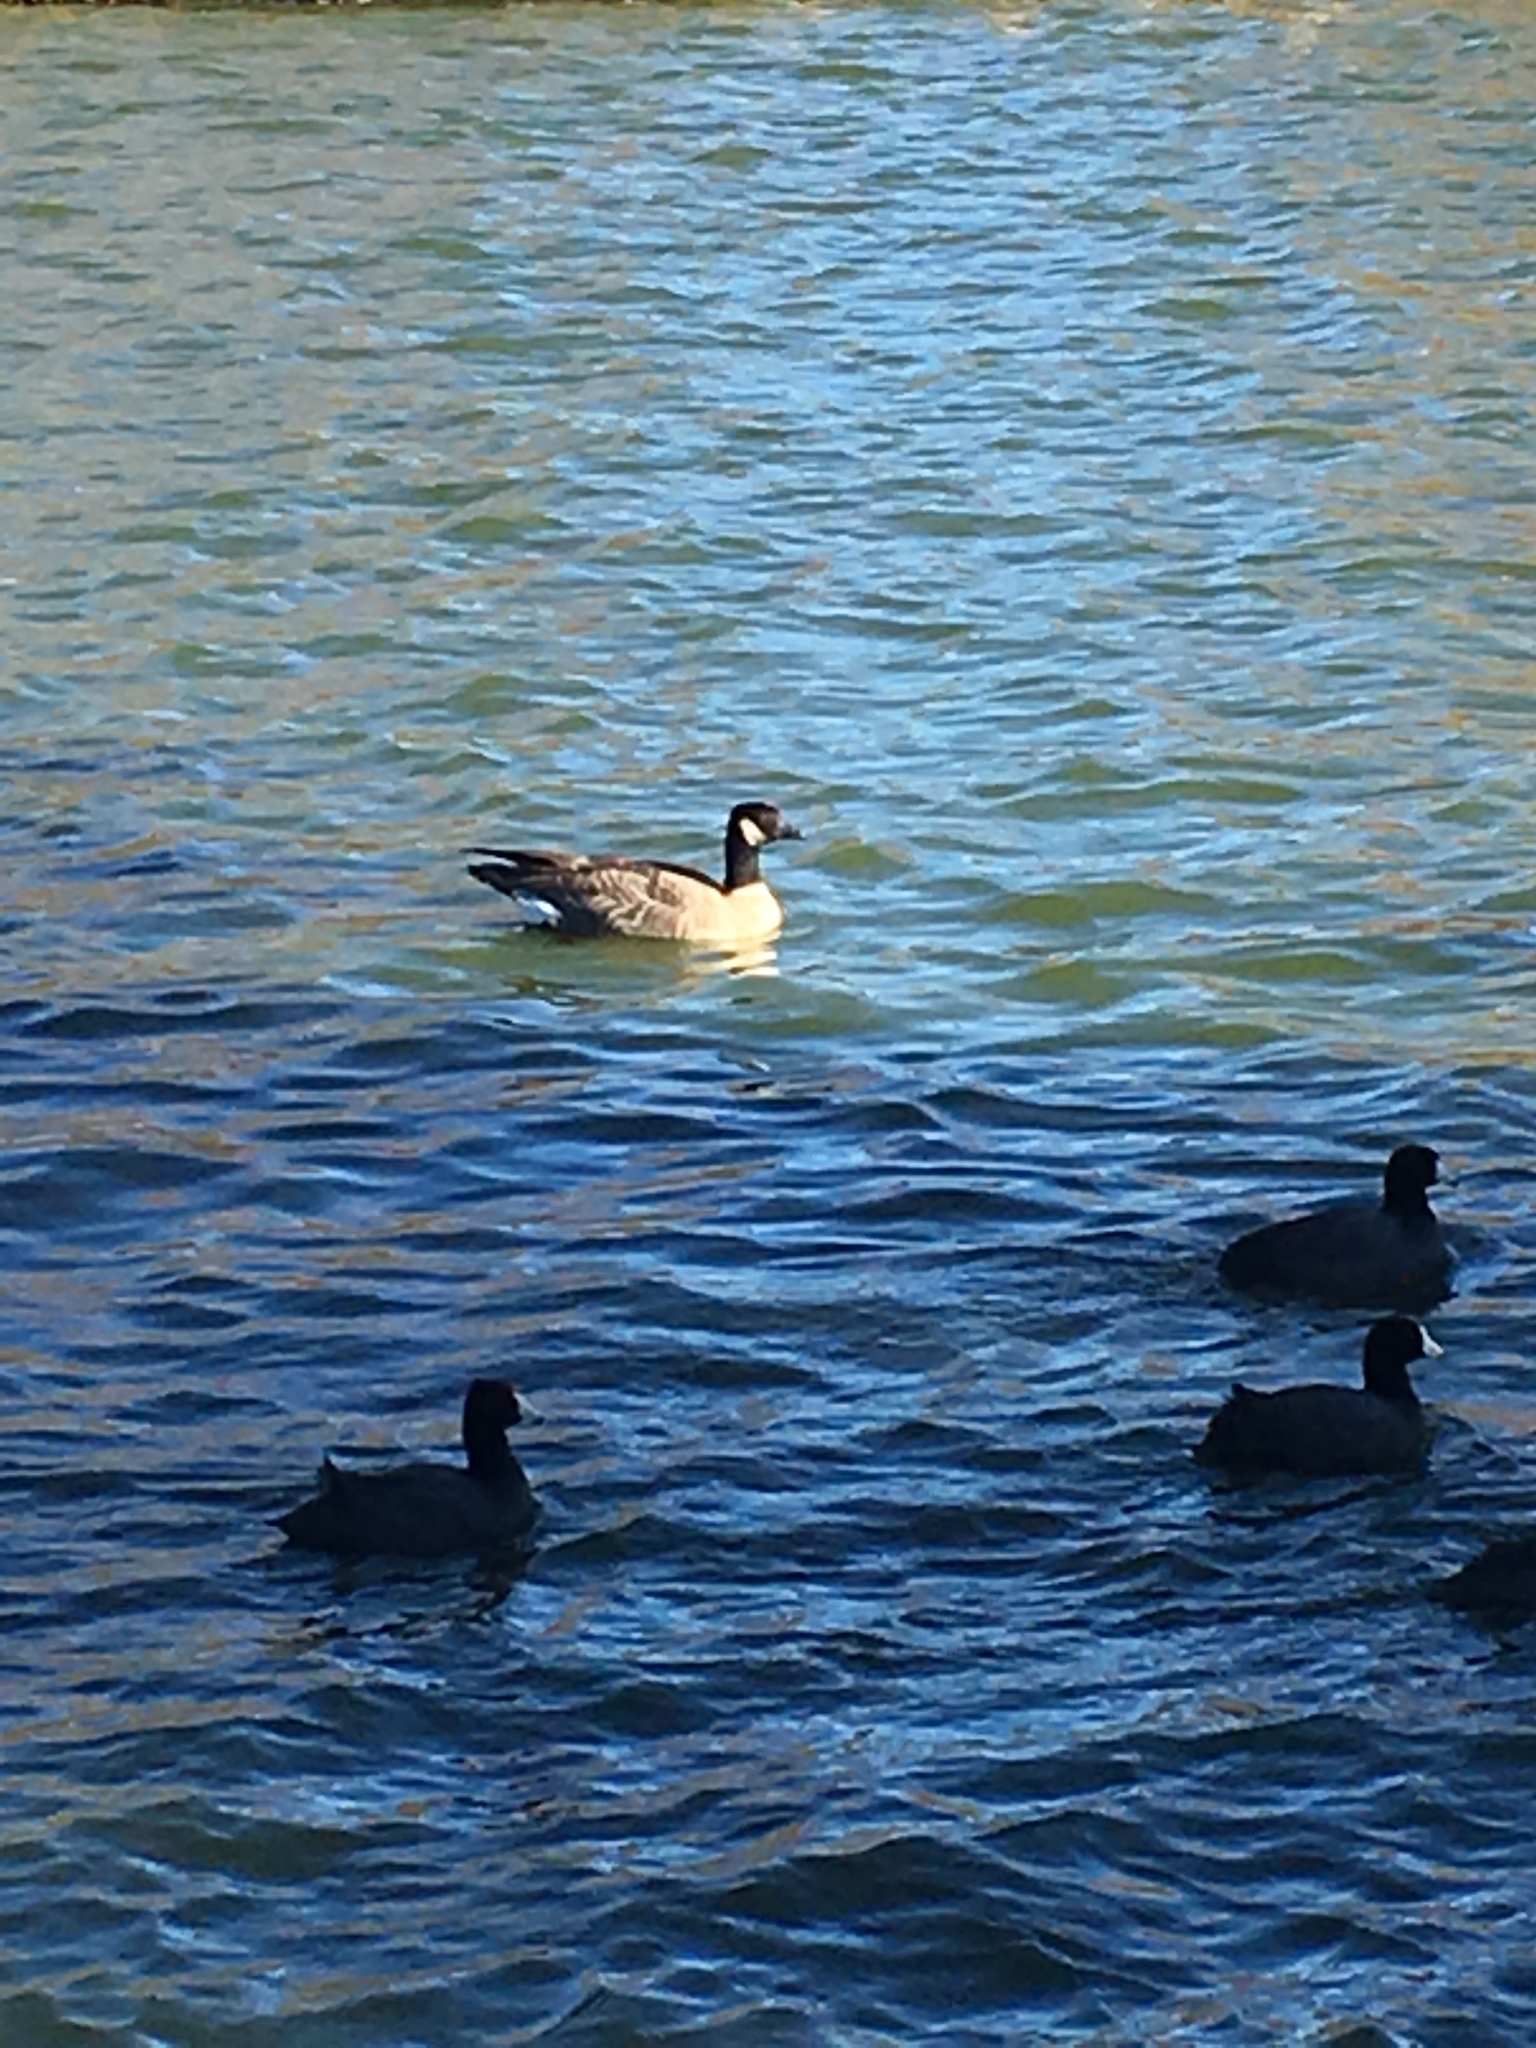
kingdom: Animalia
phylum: Chordata
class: Aves
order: Anseriformes
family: Anatidae
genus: Branta
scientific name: Branta hutchinsii
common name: Cackling goose
